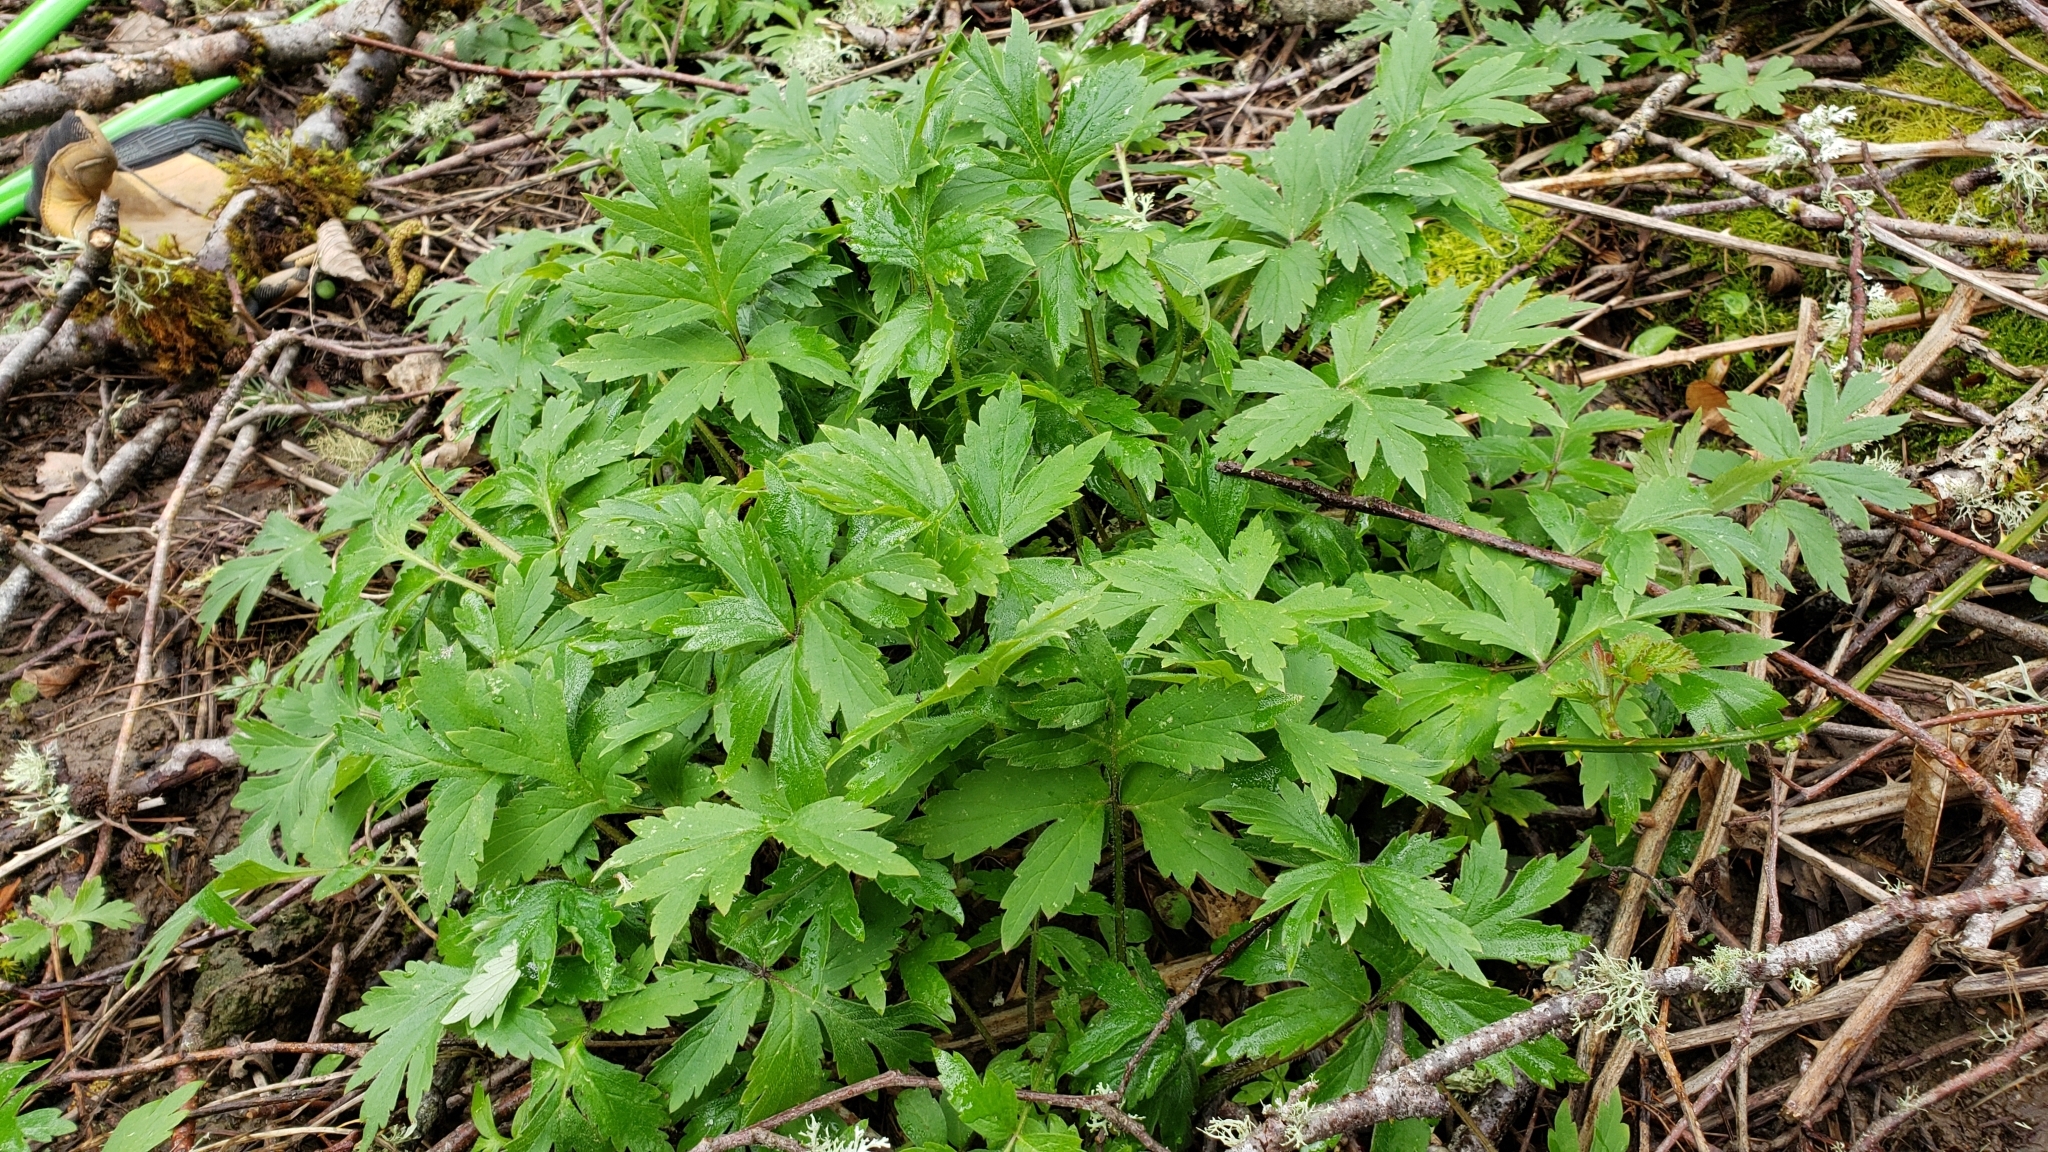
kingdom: Plantae
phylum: Tracheophyta
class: Magnoliopsida
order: Boraginales
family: Hydrophyllaceae
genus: Hydrophyllum
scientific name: Hydrophyllum tenuipes
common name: Pacific waterleaf
